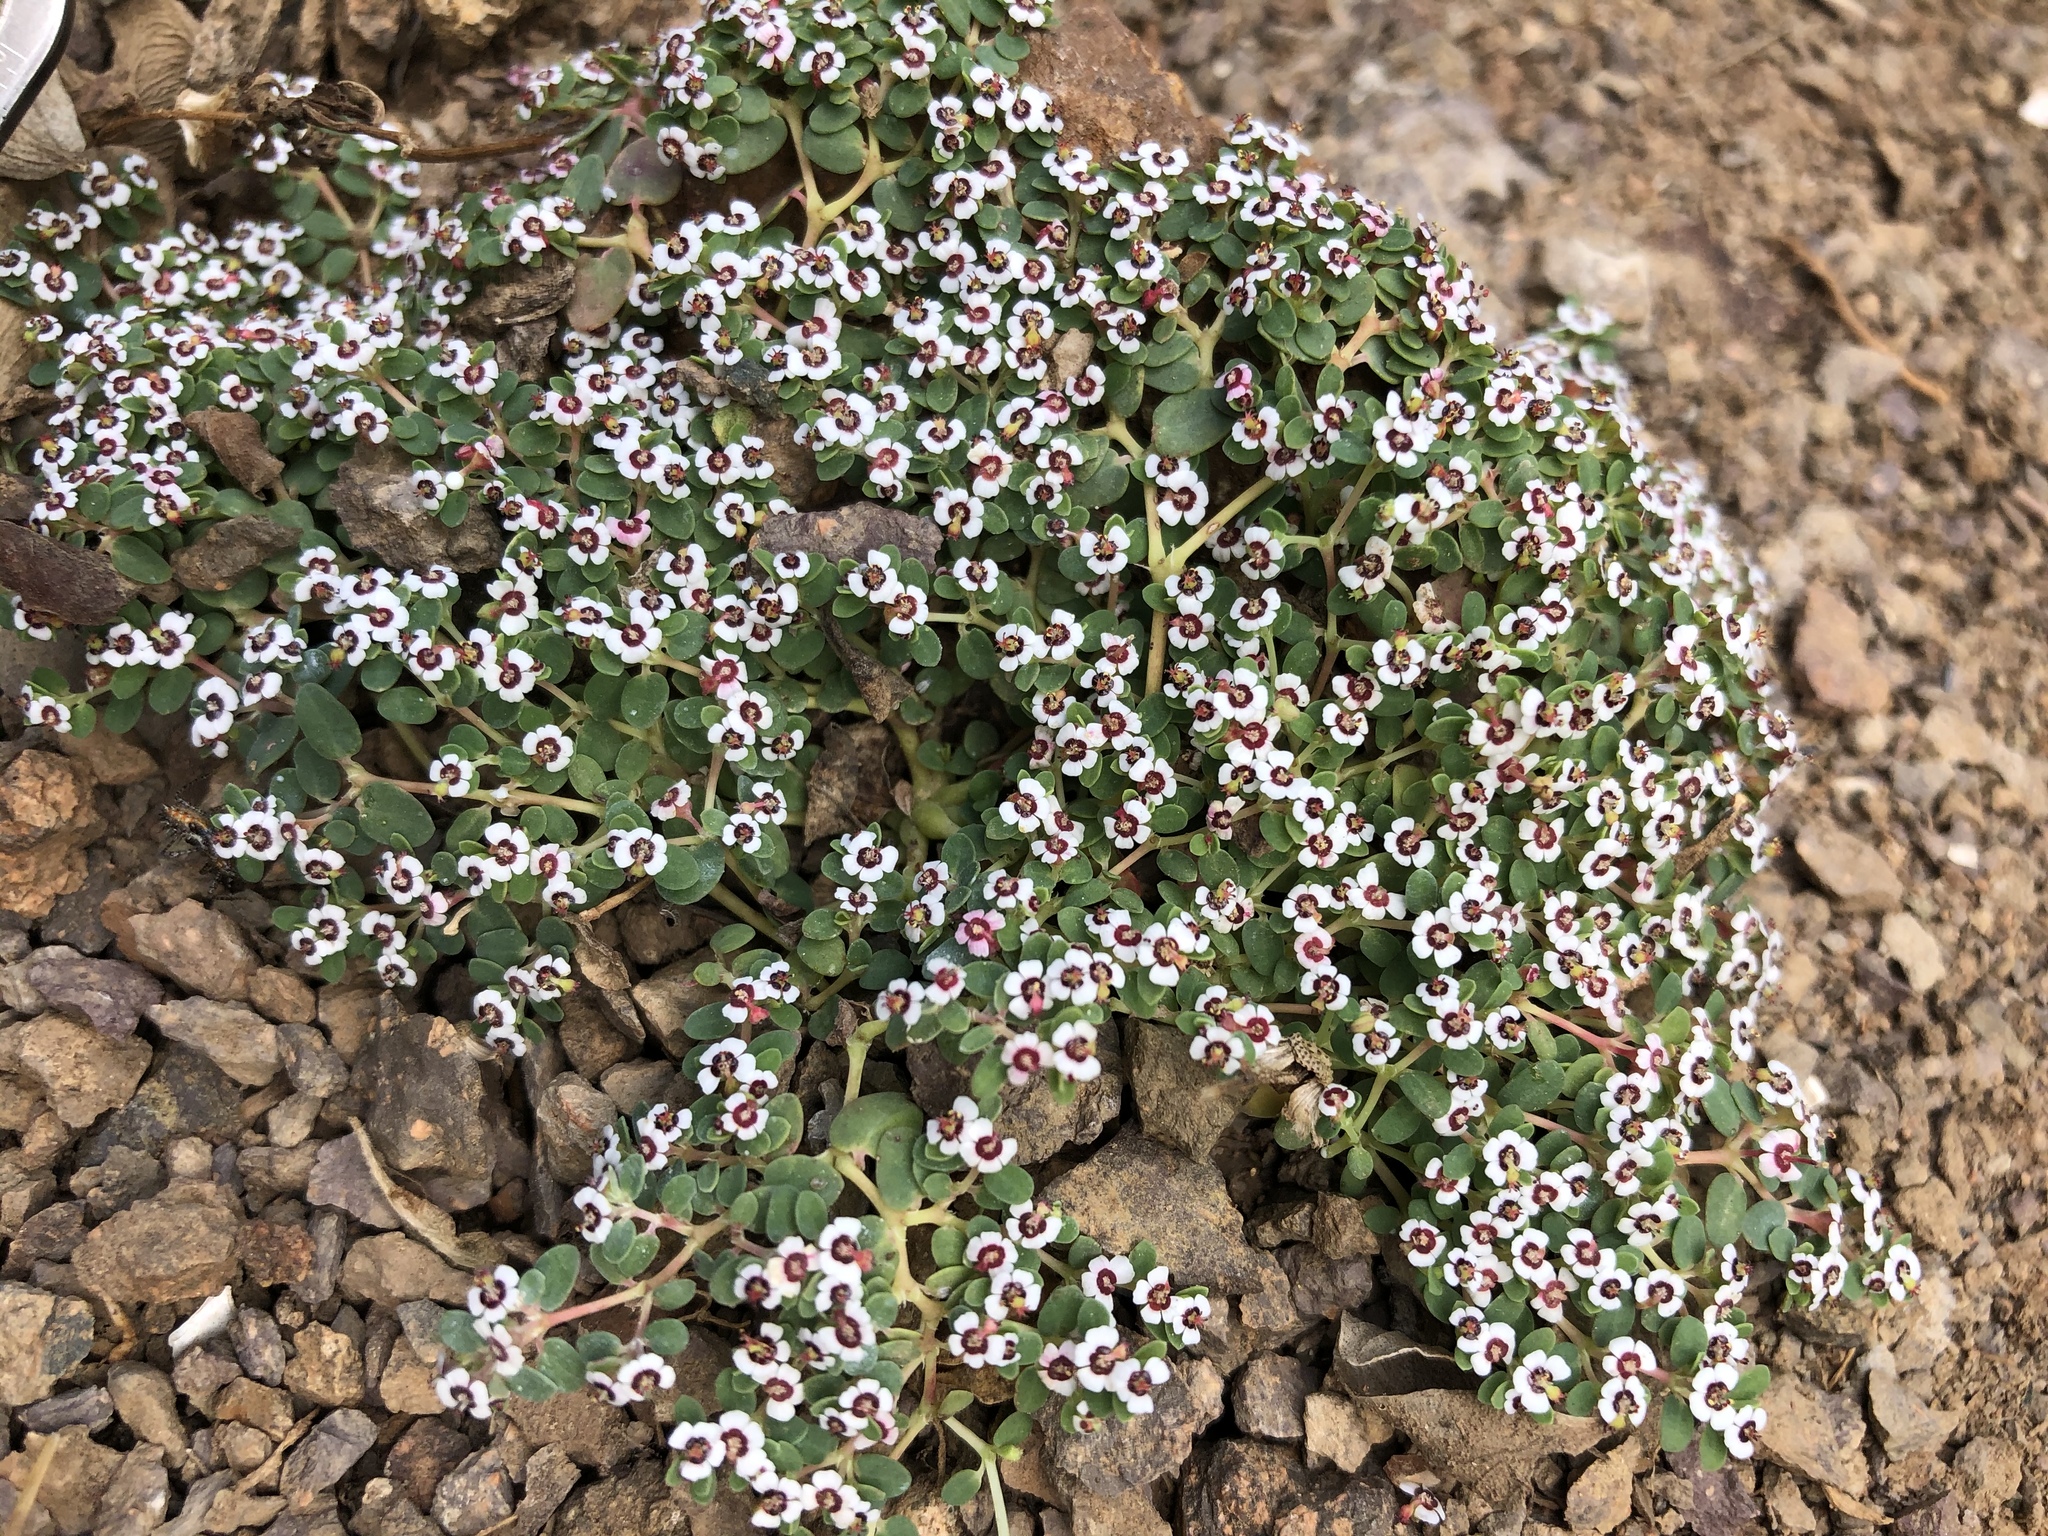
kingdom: Plantae
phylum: Tracheophyta
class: Magnoliopsida
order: Malpighiales
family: Euphorbiaceae
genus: Euphorbia
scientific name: Euphorbia polycarpa
